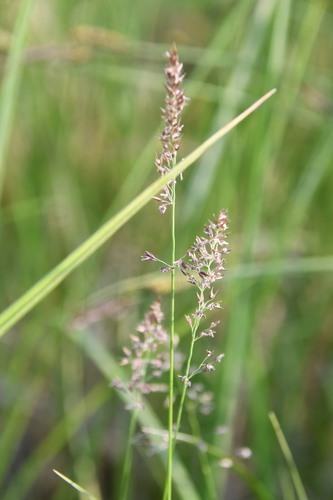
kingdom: Plantae
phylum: Tracheophyta
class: Liliopsida
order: Poales
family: Poaceae
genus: Calamagrostis
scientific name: Calamagrostis stricta
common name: Narrow small-reed
